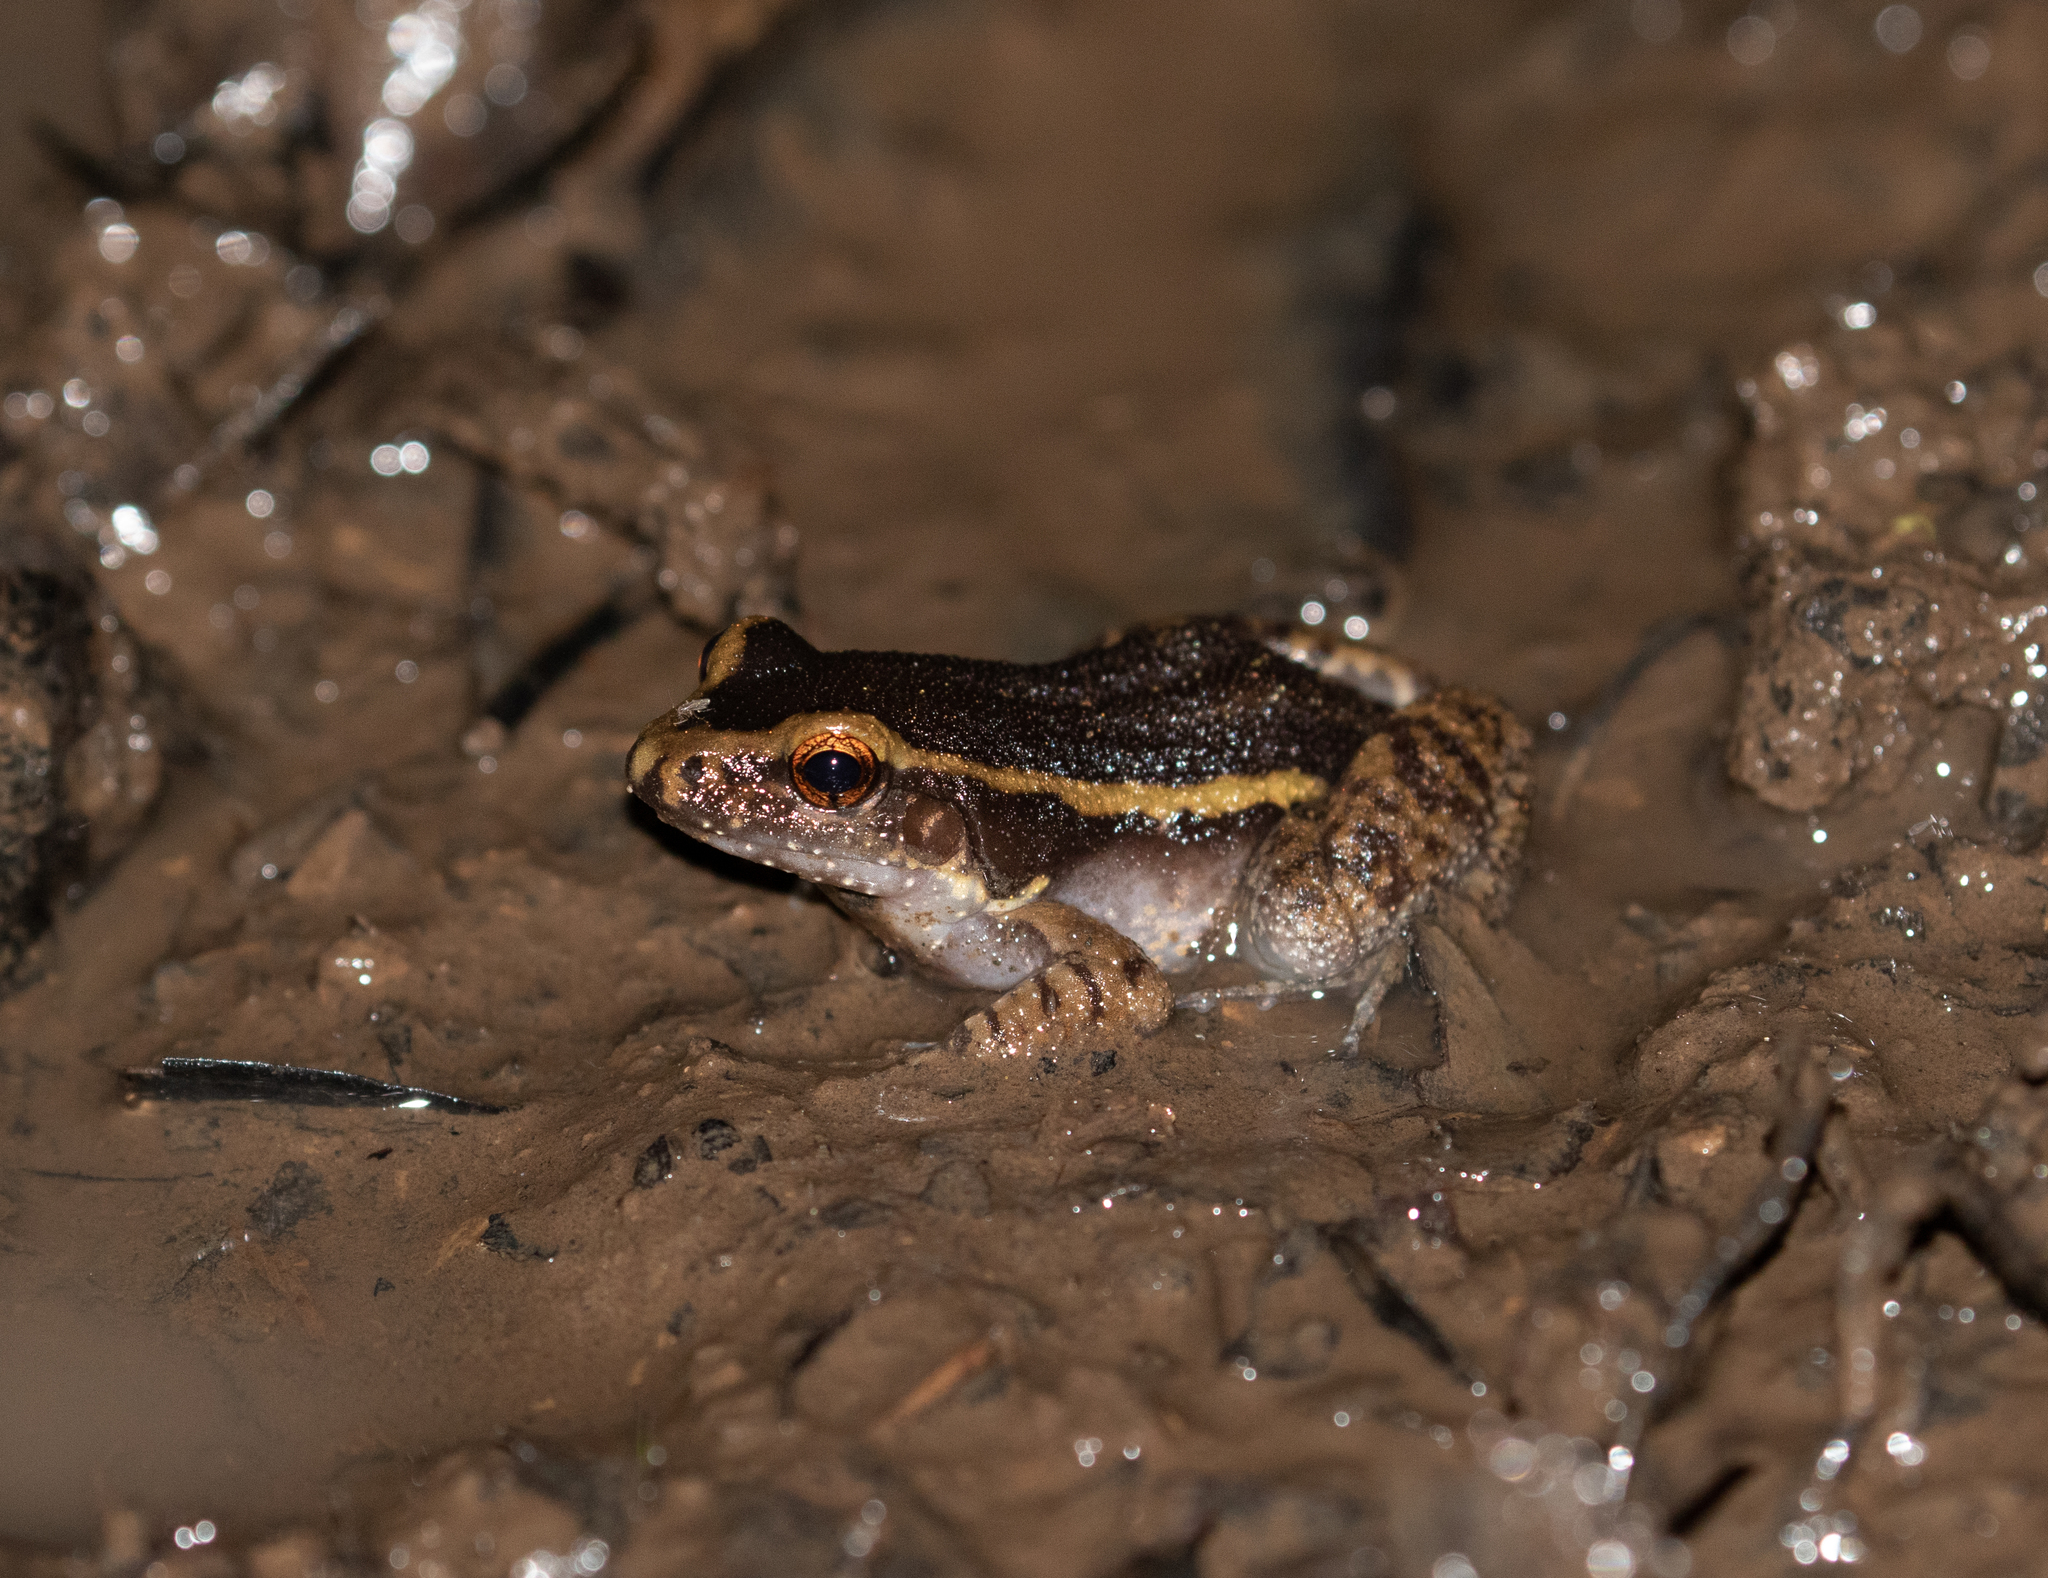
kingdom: Animalia
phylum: Chordata
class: Amphibia
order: Anura
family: Leptodactylidae
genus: Lithodytes
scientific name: Lithodytes lineatus
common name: Gold-striped frog
